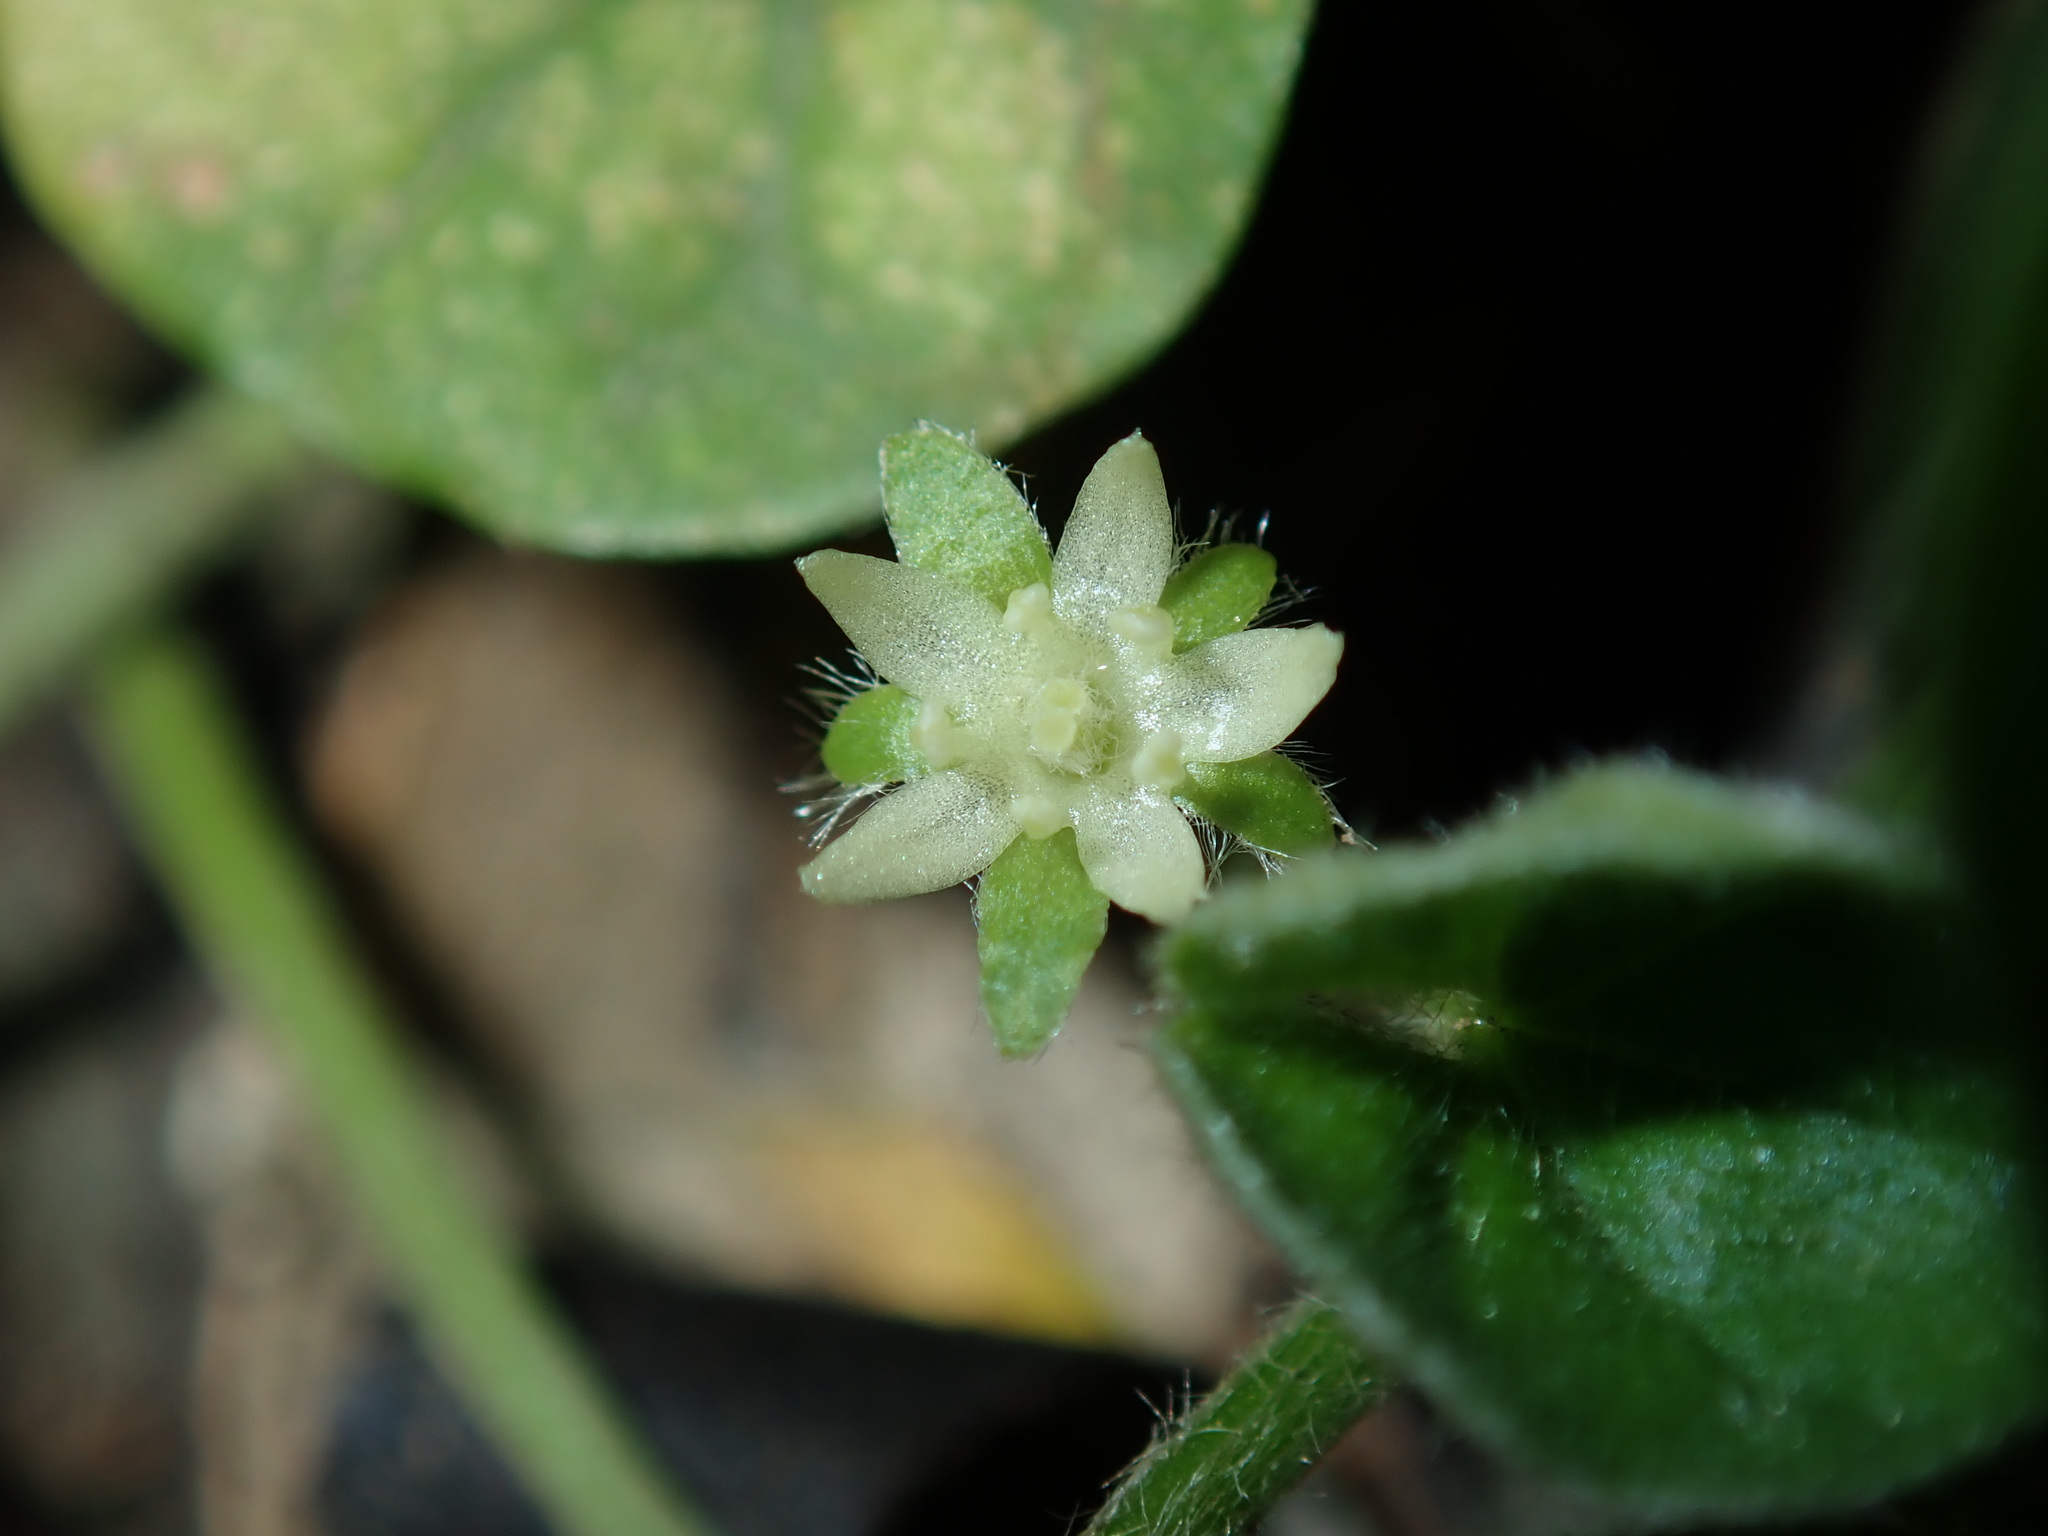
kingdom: Plantae
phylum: Tracheophyta
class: Magnoliopsida
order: Solanales
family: Convolvulaceae
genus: Dichondra
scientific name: Dichondra repens
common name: Kidneyweed
